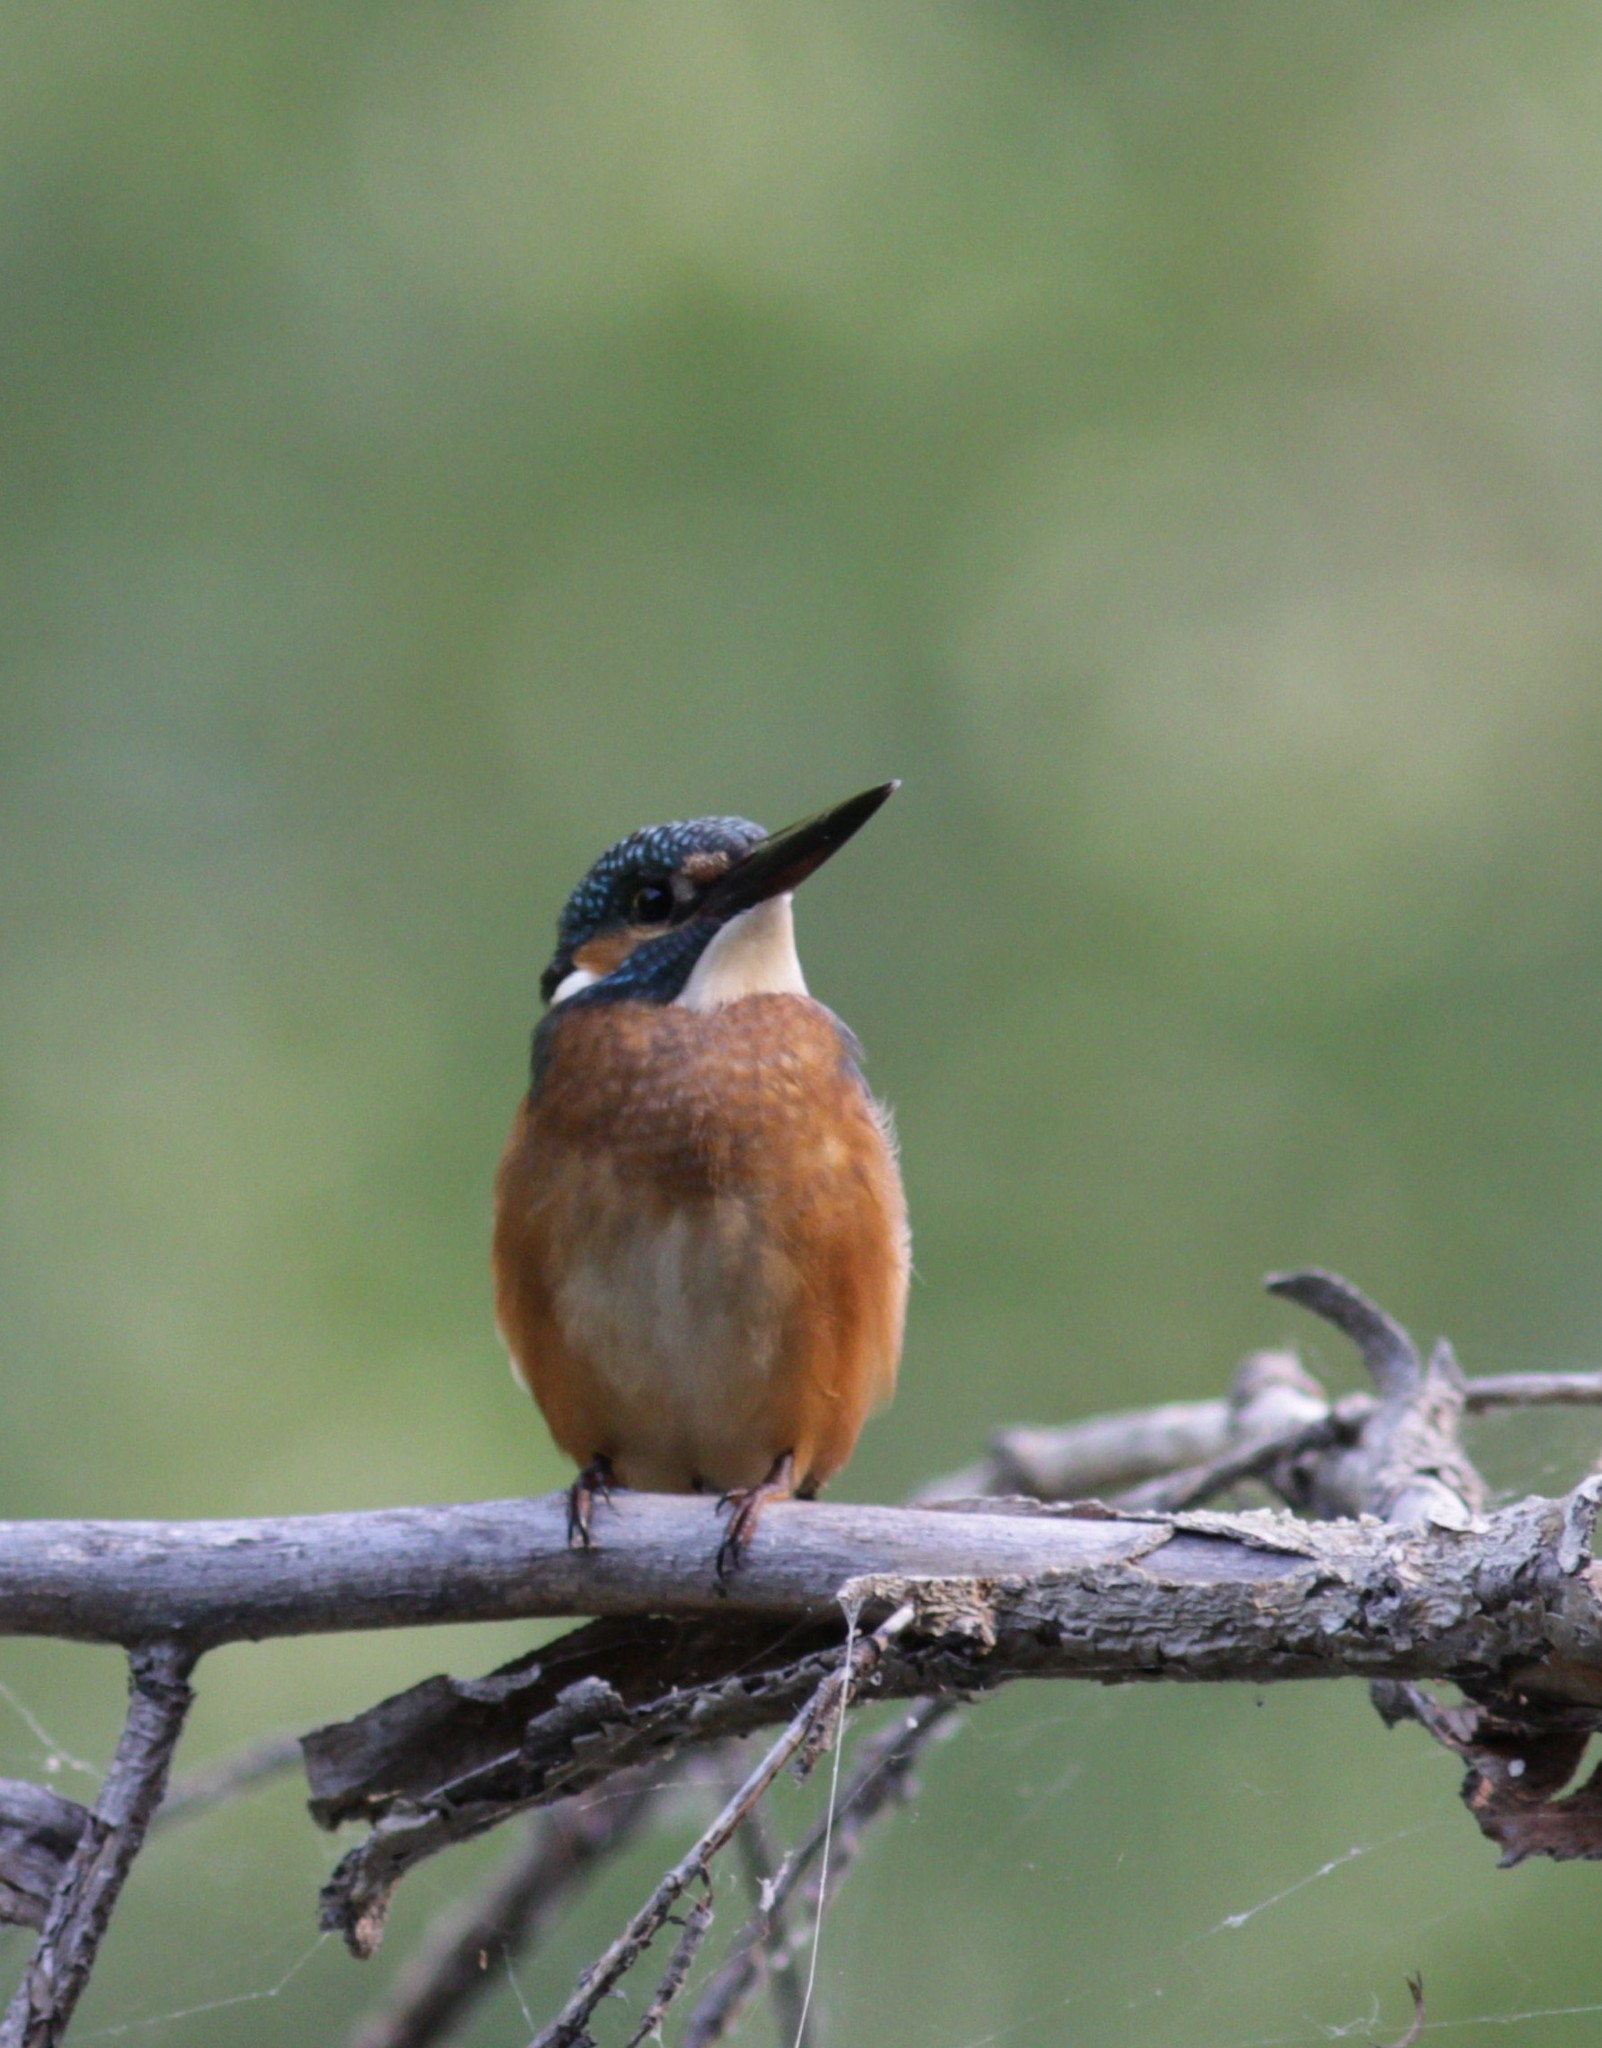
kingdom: Animalia
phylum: Chordata
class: Aves
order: Coraciiformes
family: Alcedinidae
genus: Alcedo
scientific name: Alcedo atthis
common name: Common kingfisher
